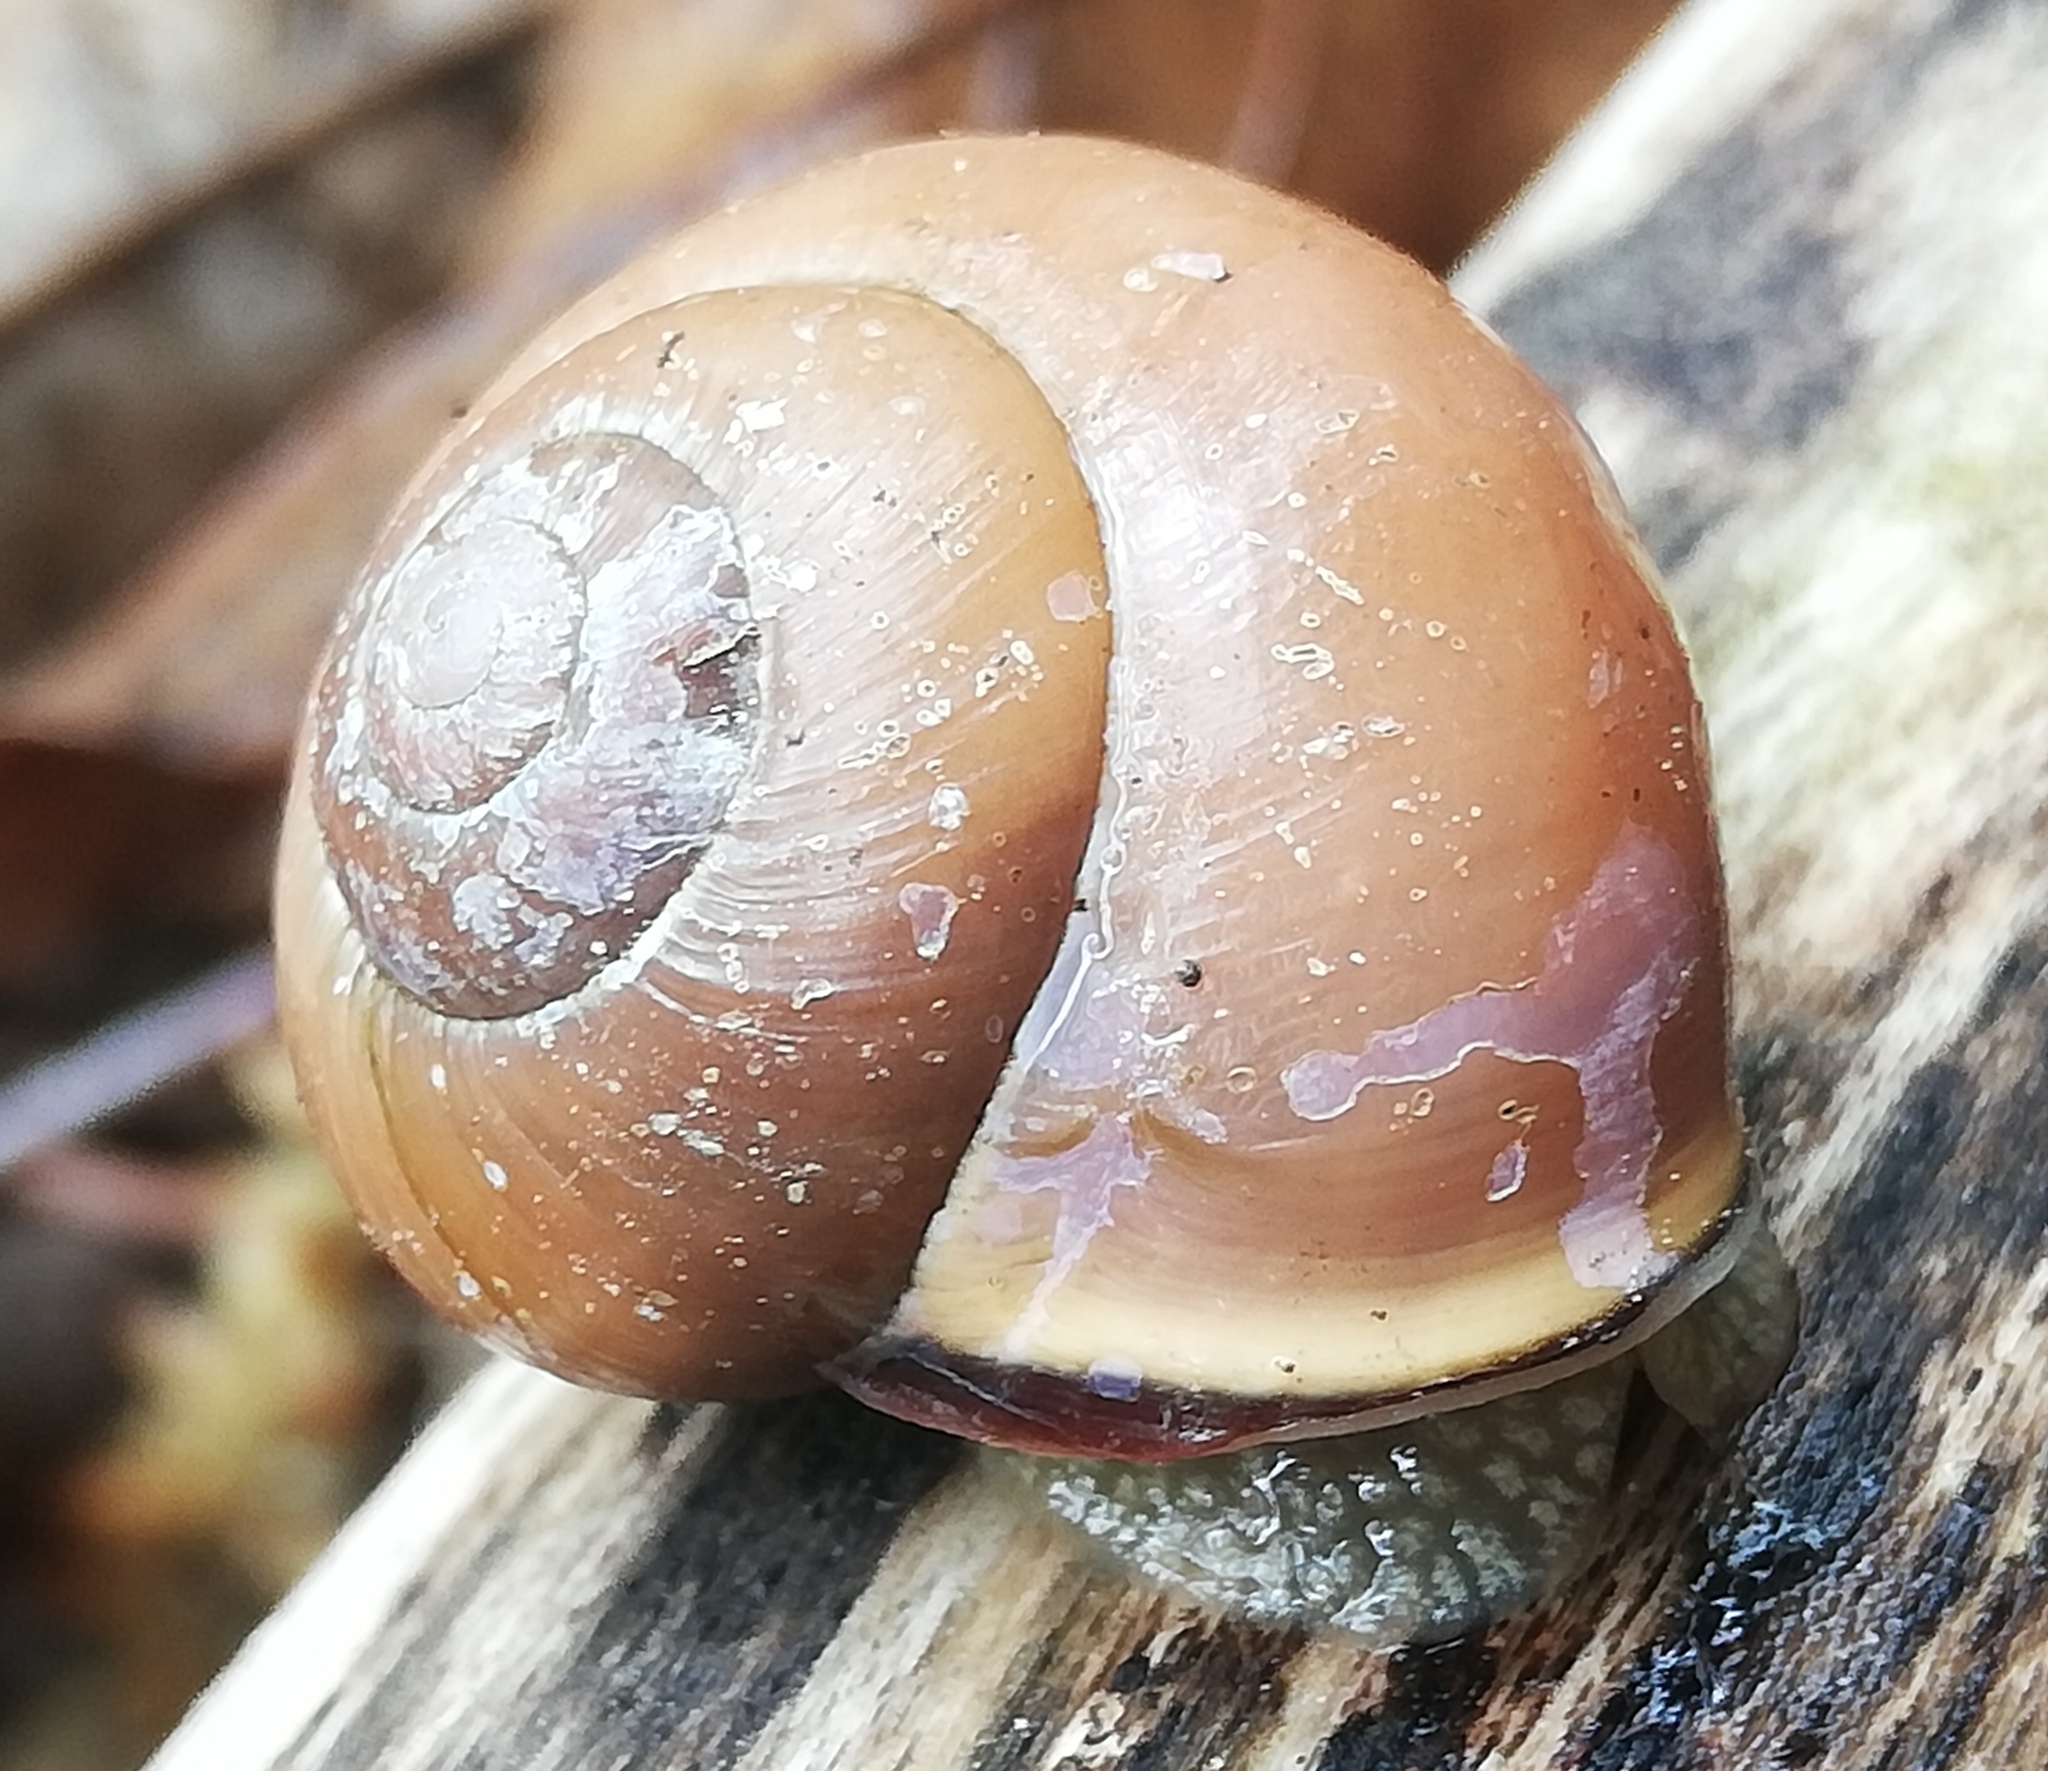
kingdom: Animalia
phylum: Mollusca
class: Gastropoda
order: Stylommatophora
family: Helicidae
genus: Cepaea
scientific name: Cepaea nemoralis
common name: Grovesnail
